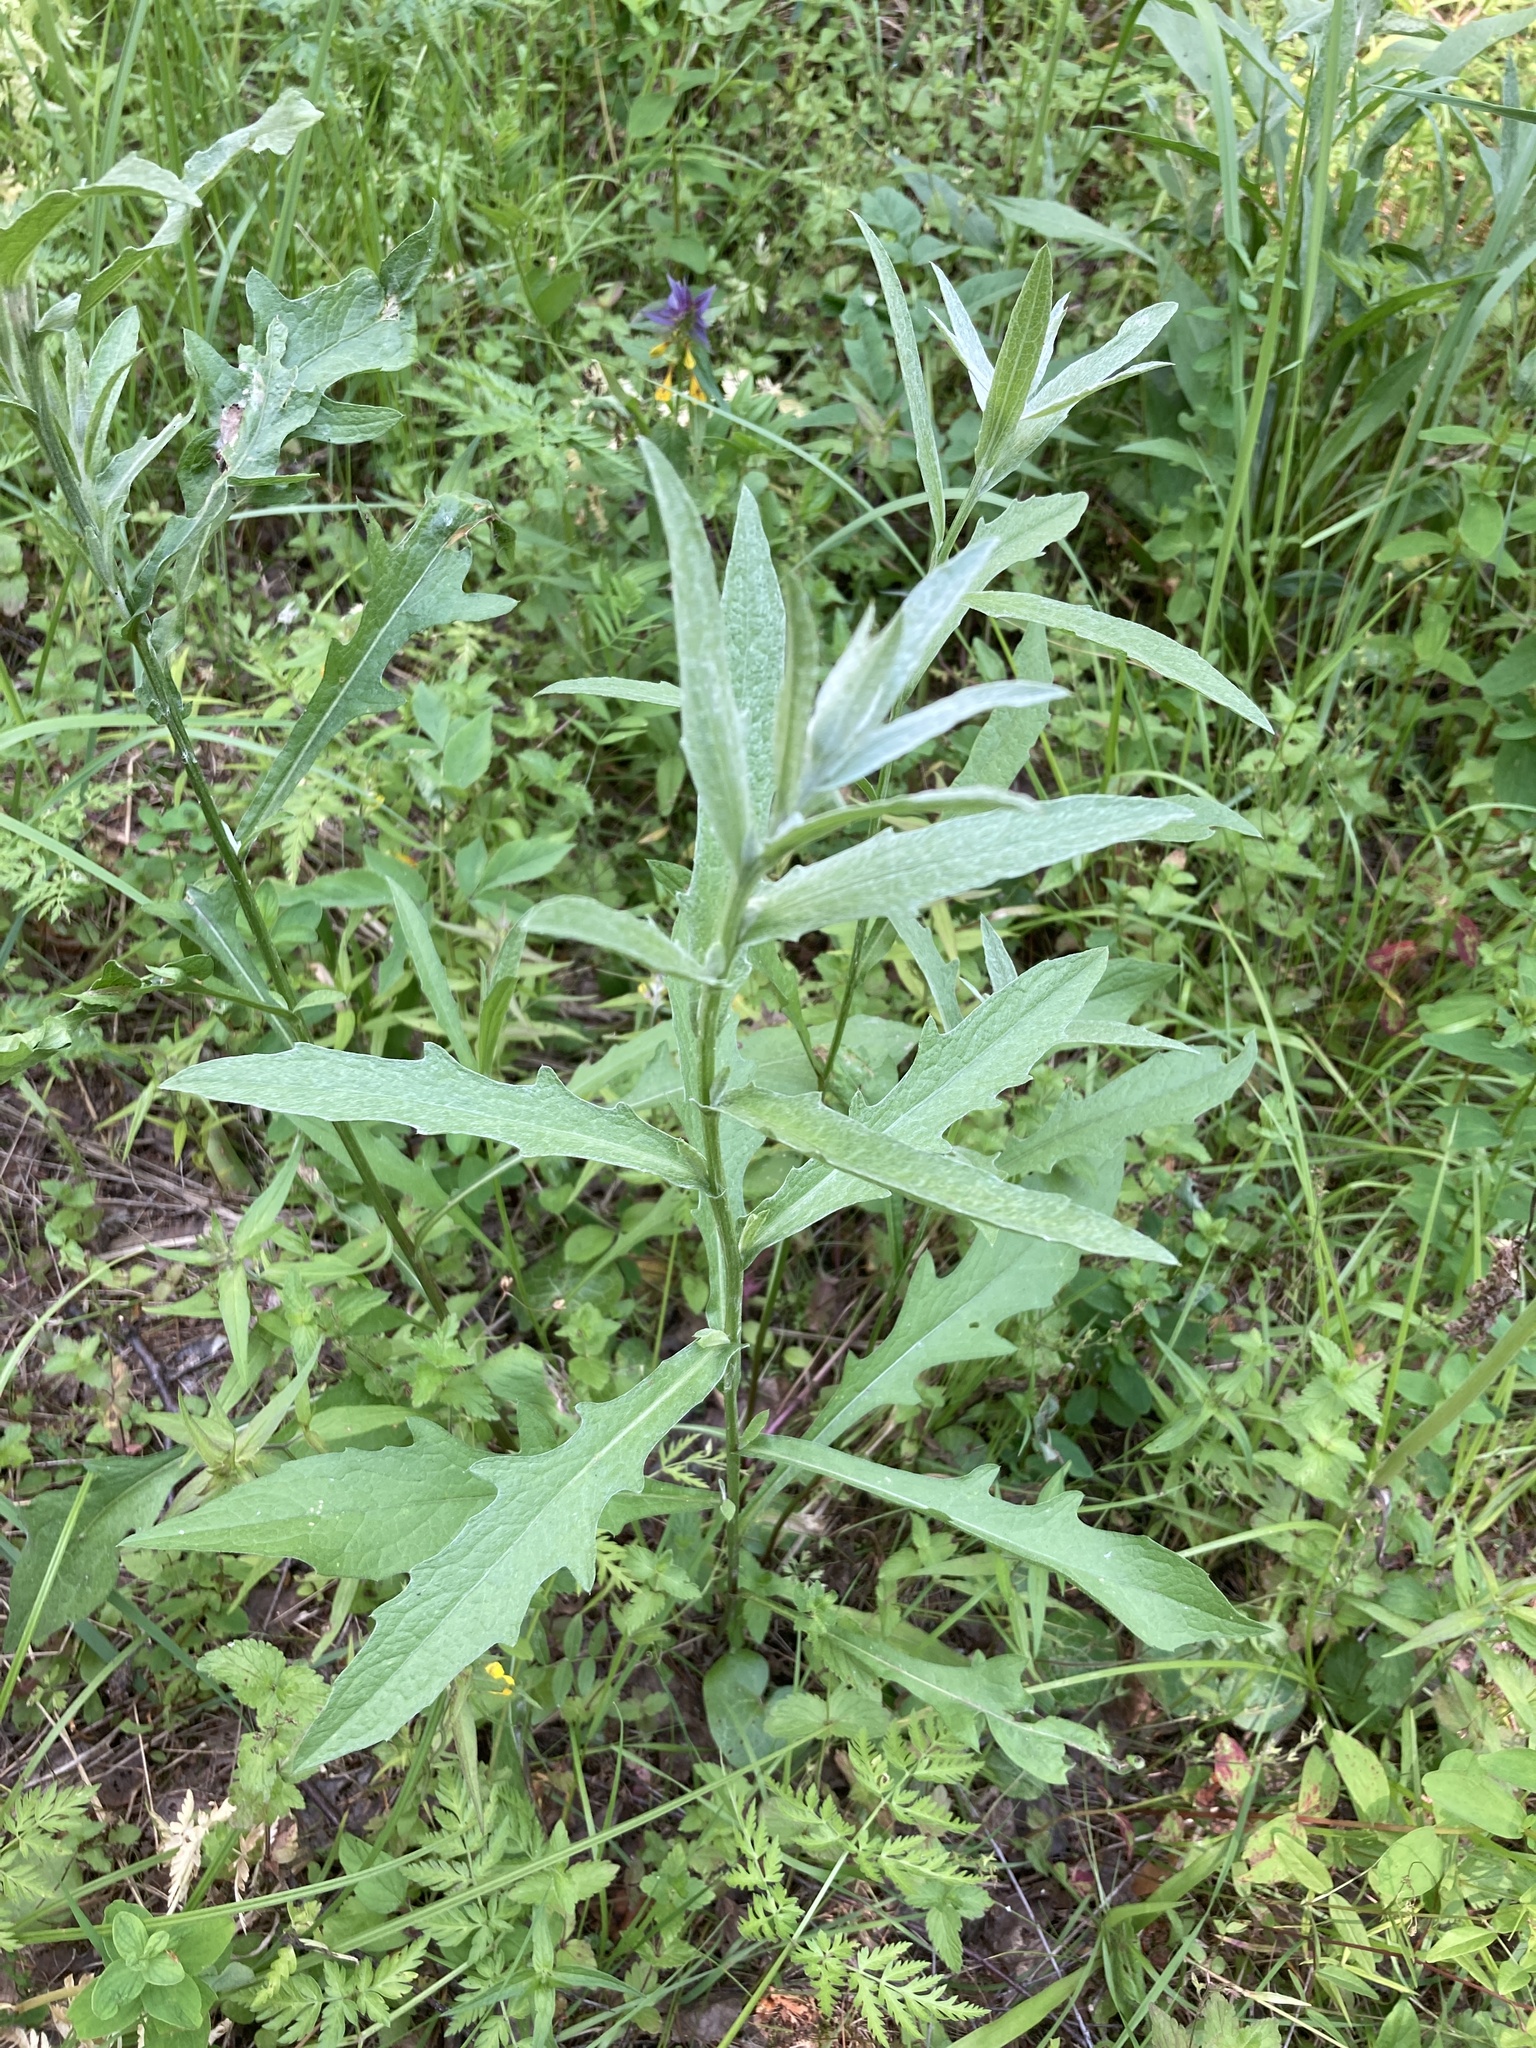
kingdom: Plantae
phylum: Tracheophyta
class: Magnoliopsida
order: Asterales
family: Asteraceae
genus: Centaurea
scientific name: Centaurea jacea
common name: Brown knapweed
